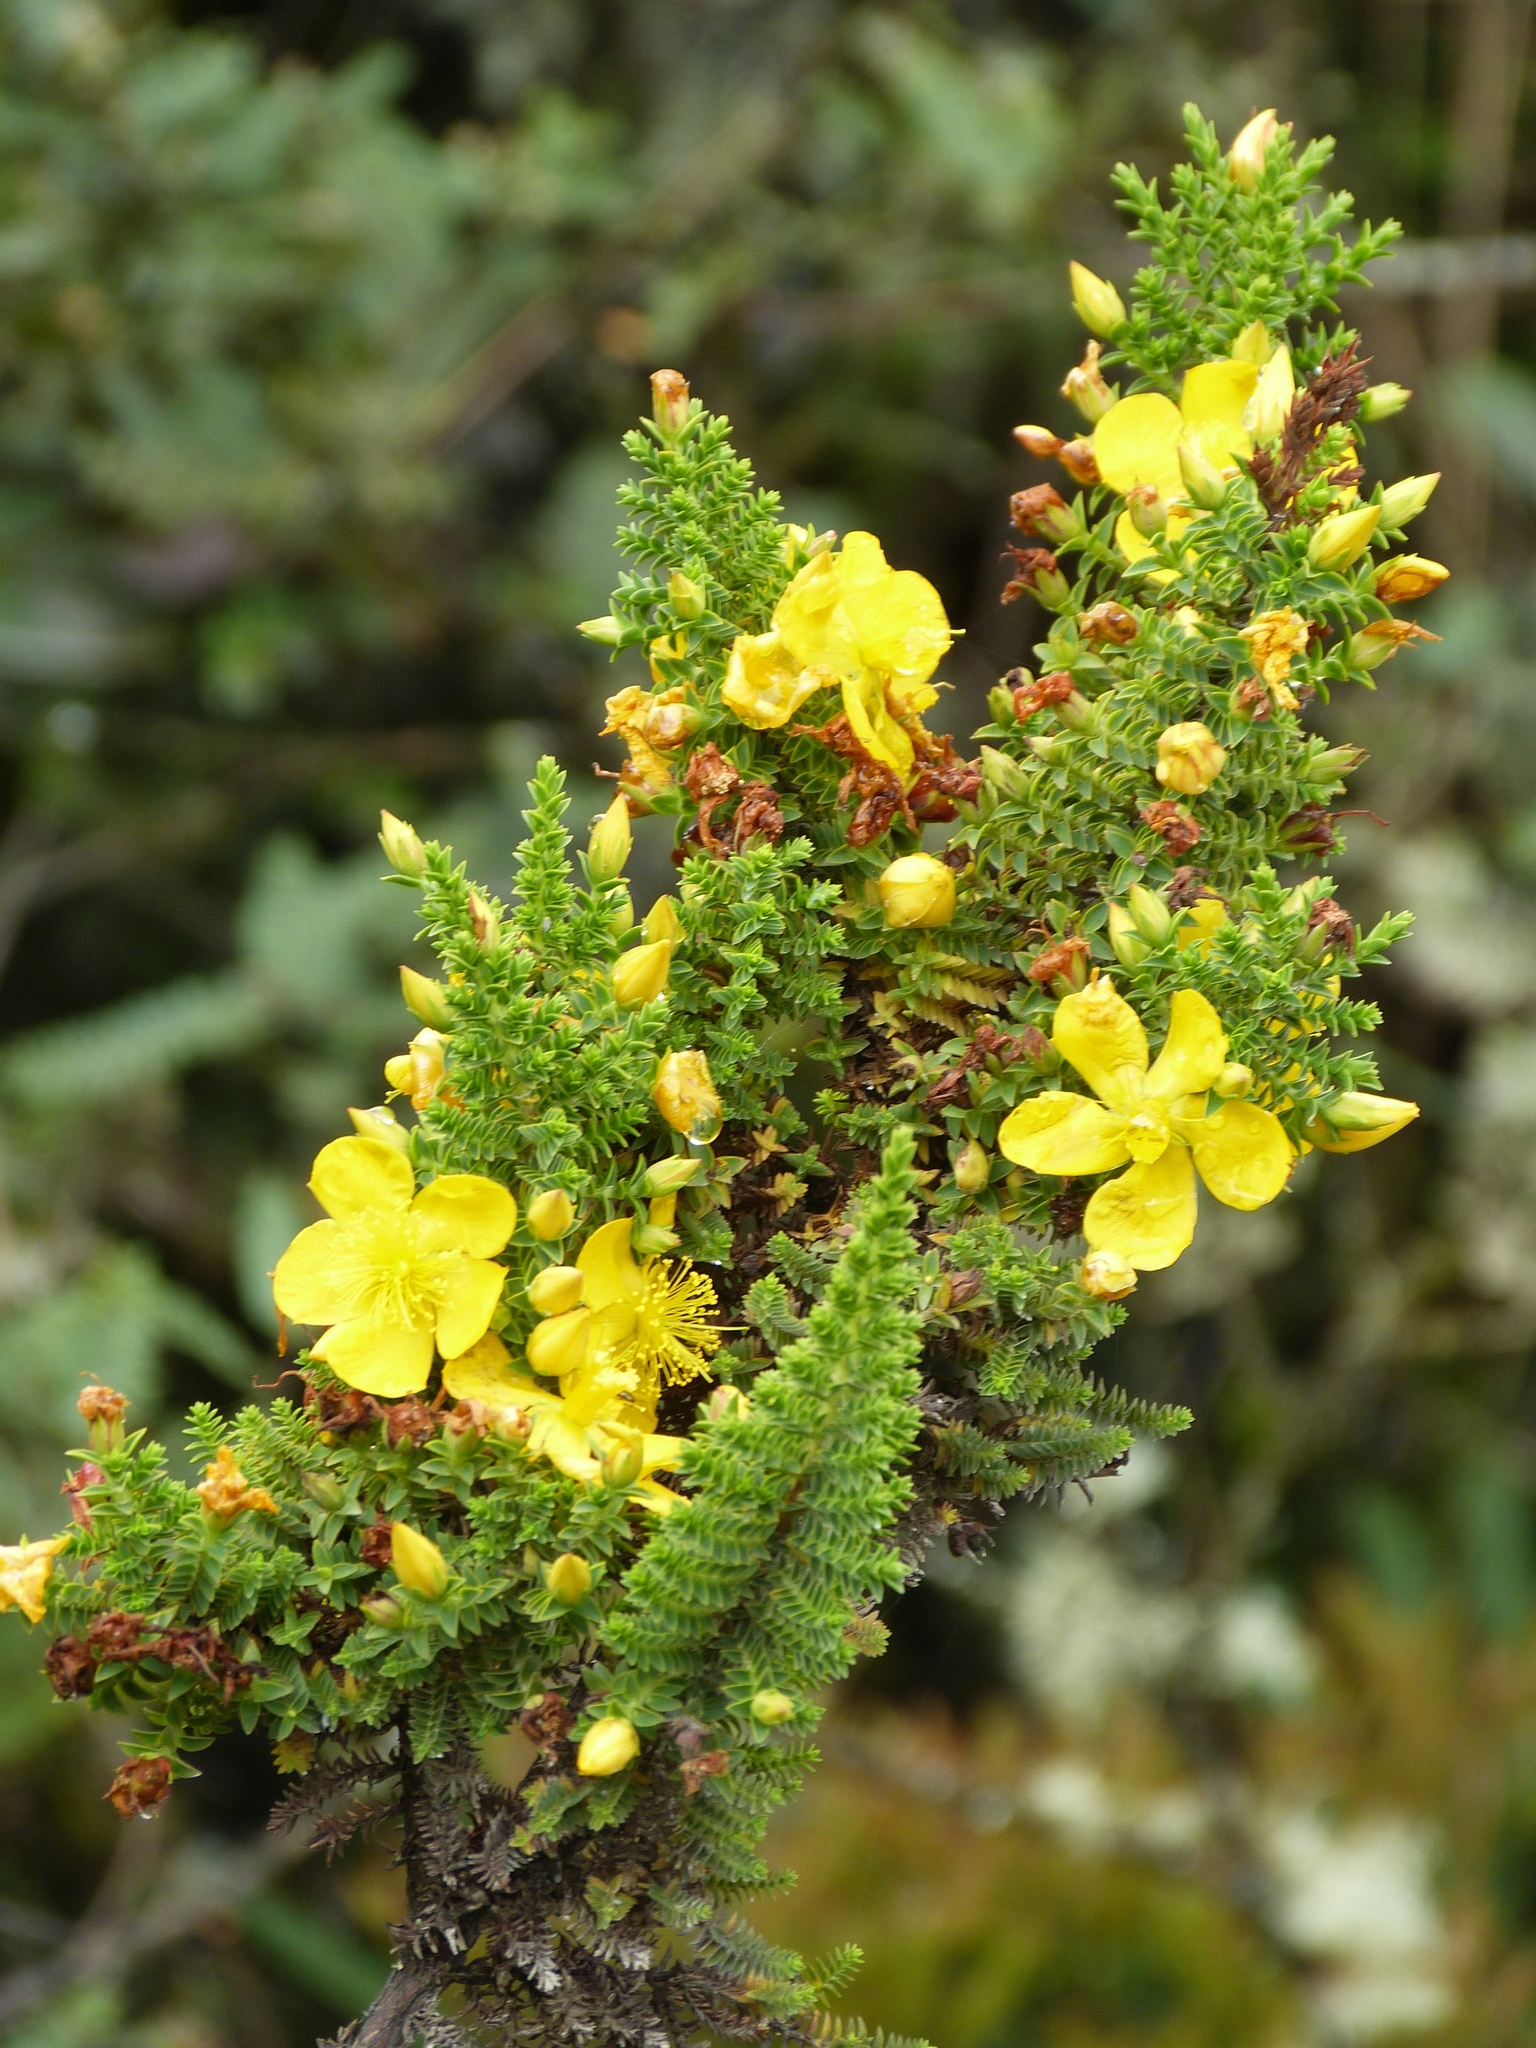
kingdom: Plantae
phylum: Tracheophyta
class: Magnoliopsida
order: Malpighiales
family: Hypericaceae
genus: Hypericum
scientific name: Hypericum goyanesii
